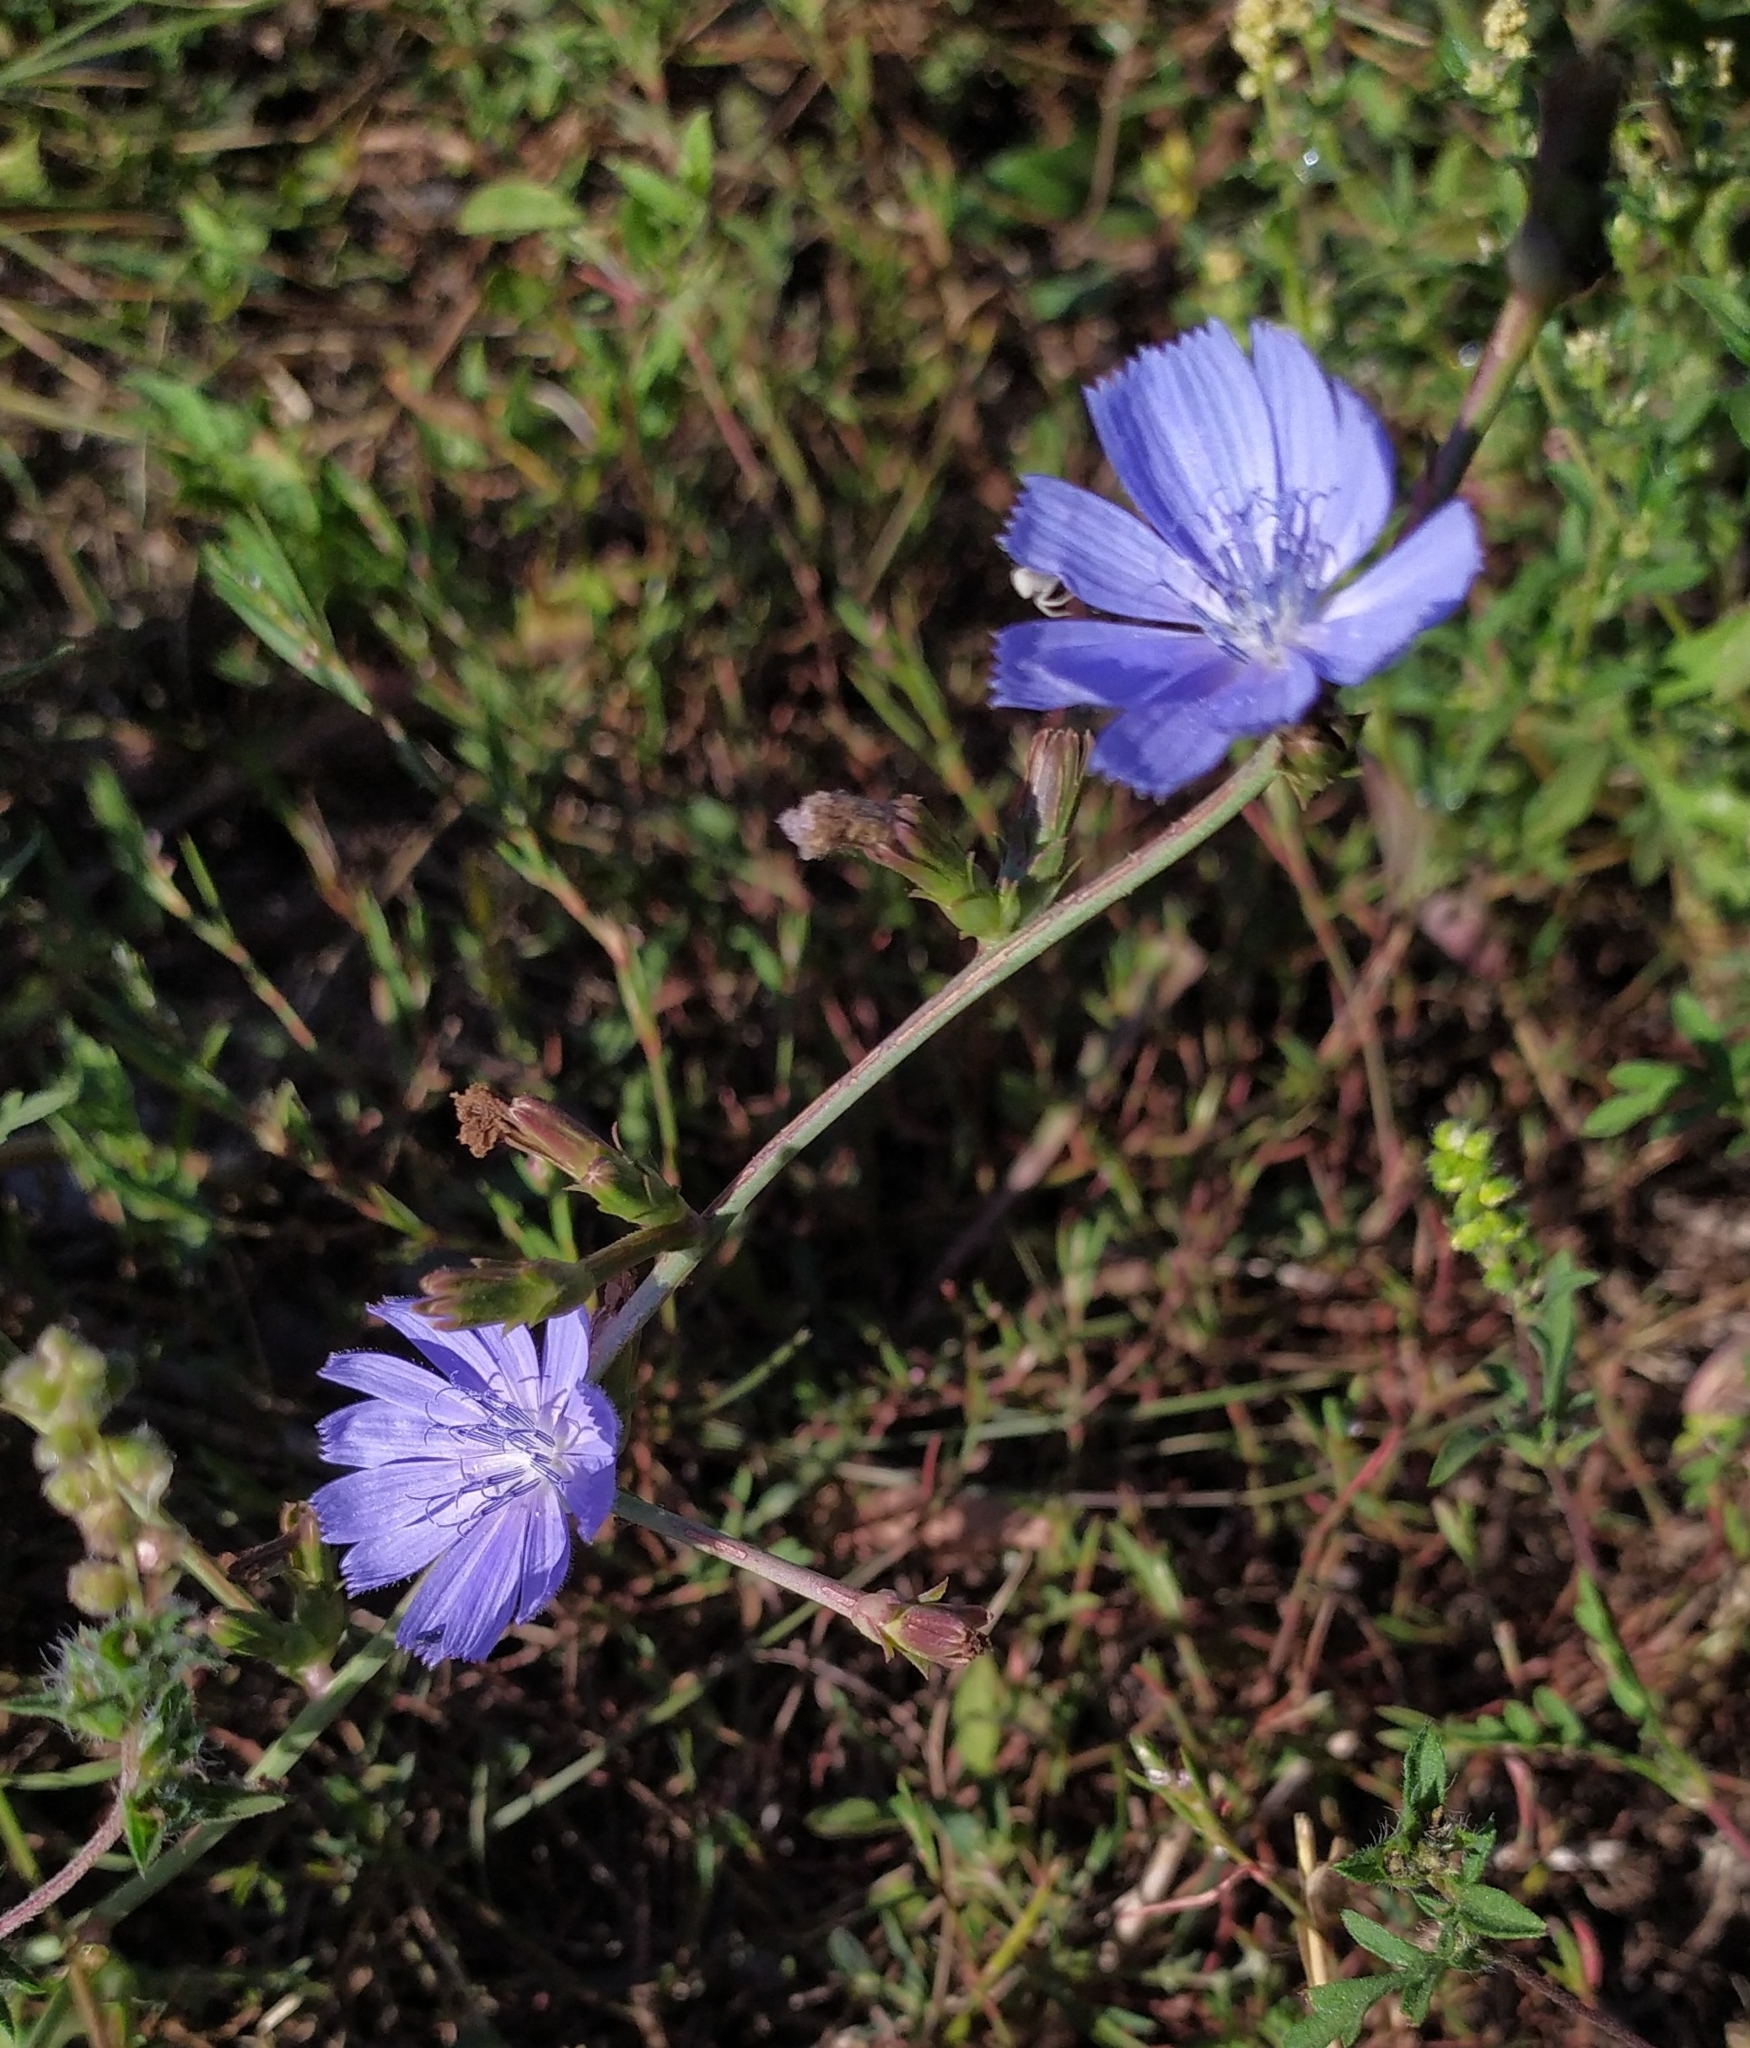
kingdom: Plantae
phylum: Tracheophyta
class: Magnoliopsida
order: Asterales
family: Asteraceae
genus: Cichorium
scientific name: Cichorium intybus
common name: Chicory
